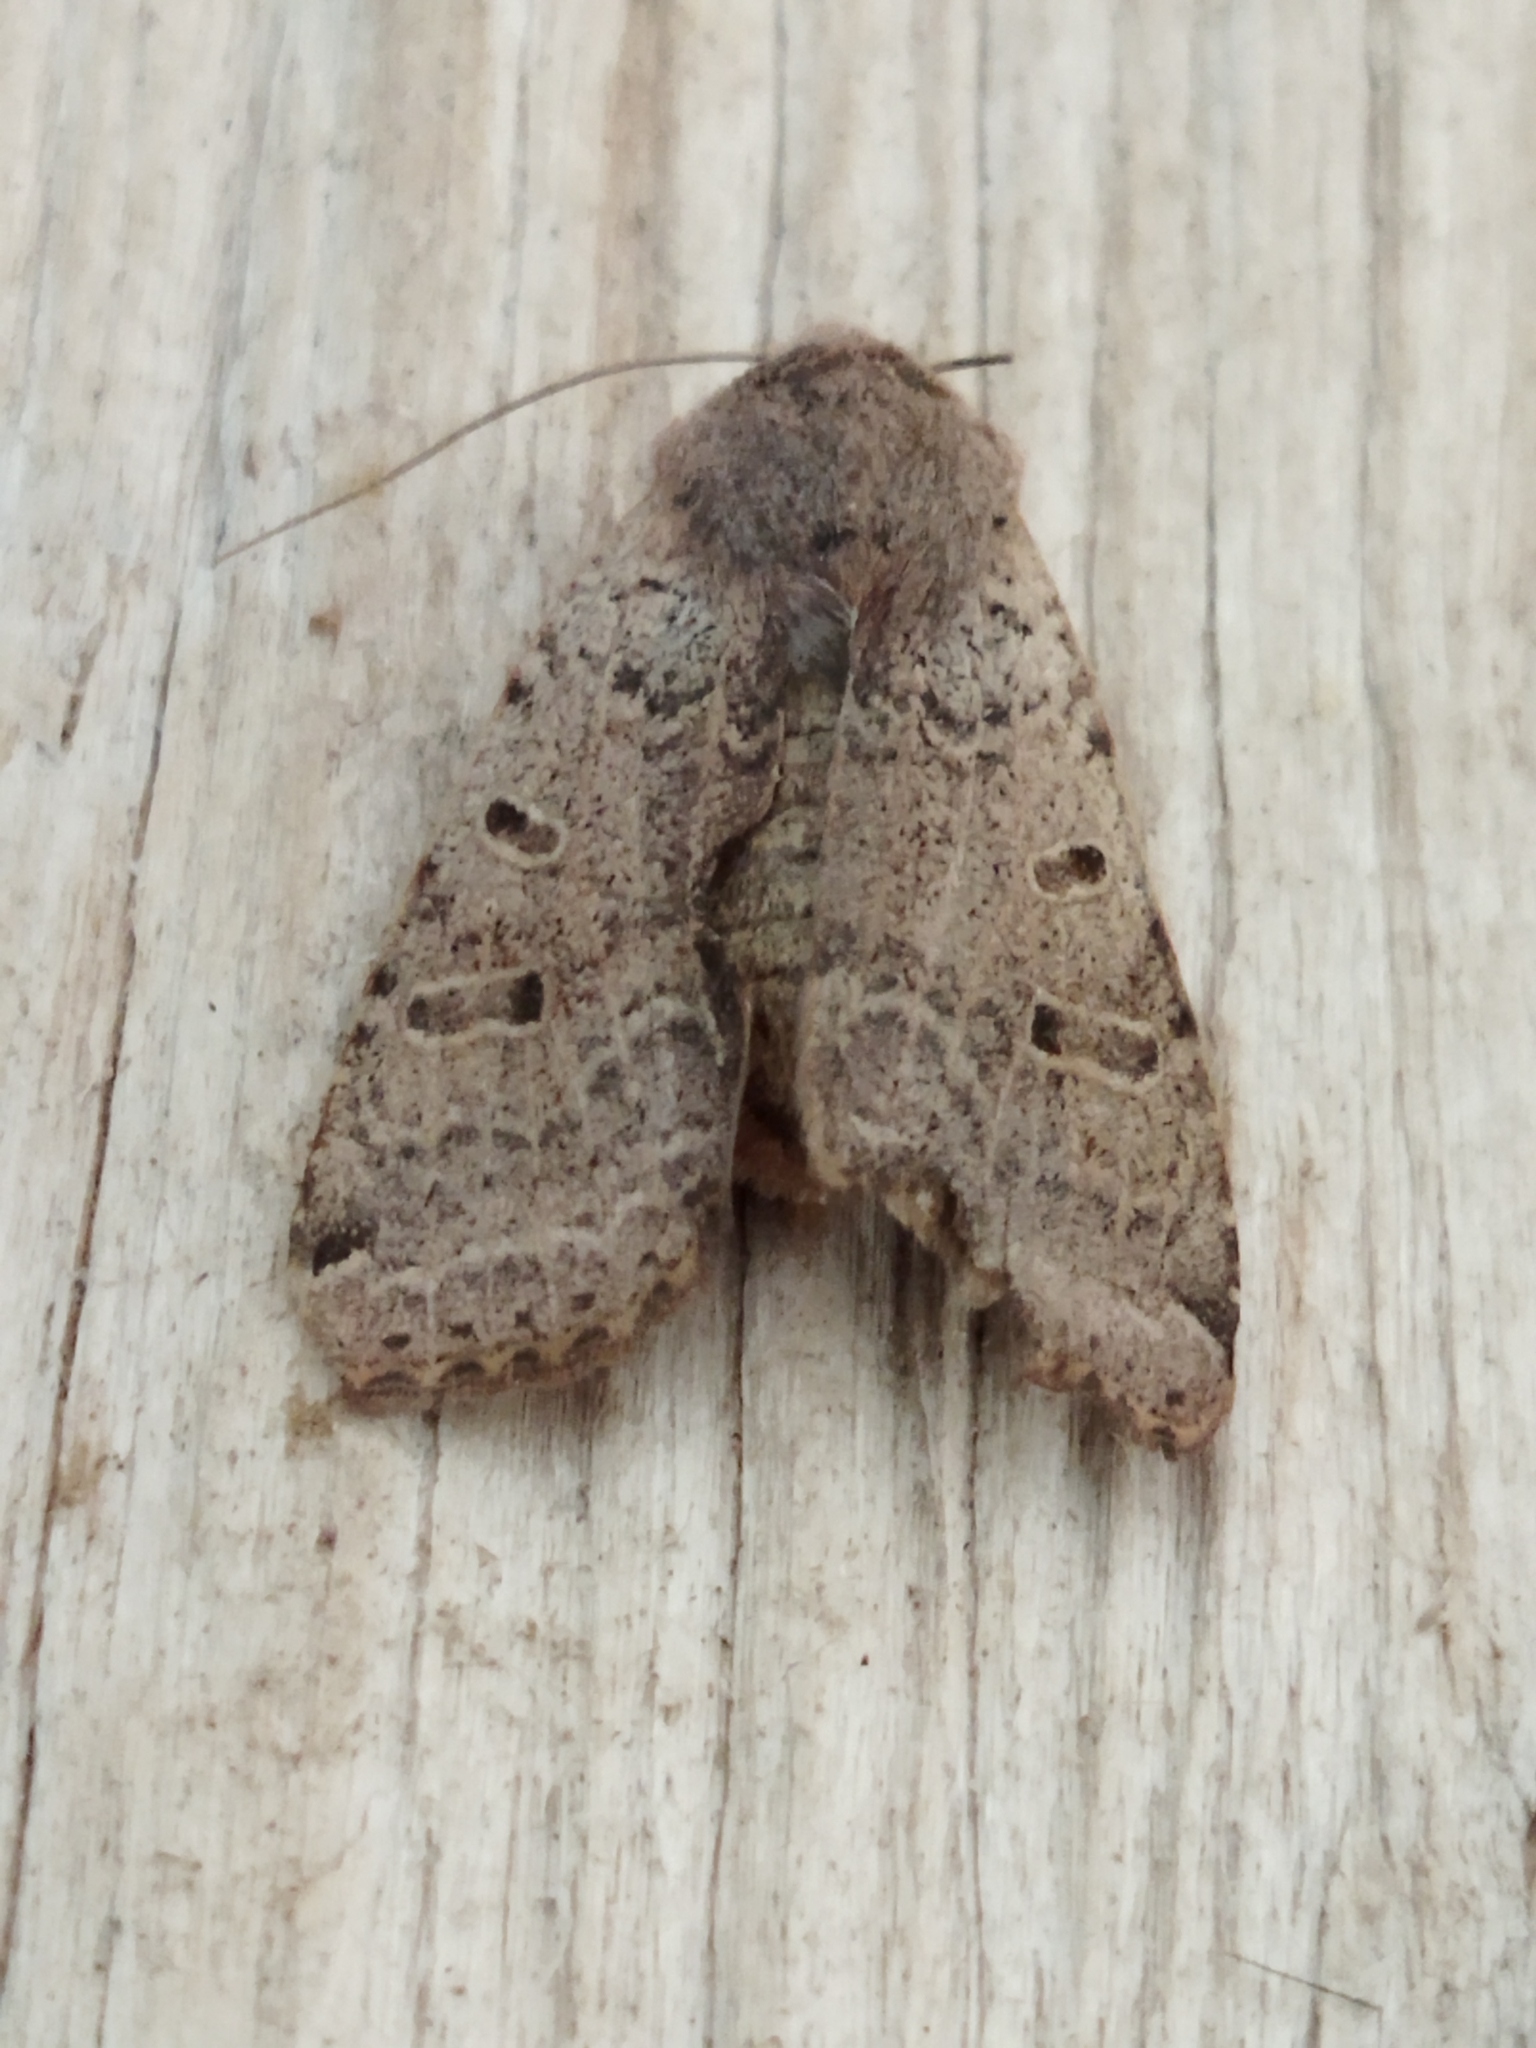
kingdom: Animalia
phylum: Arthropoda
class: Insecta
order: Lepidoptera
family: Noctuidae
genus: Agrochola
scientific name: Agrochola lychnidis
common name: Beaded chestnut
